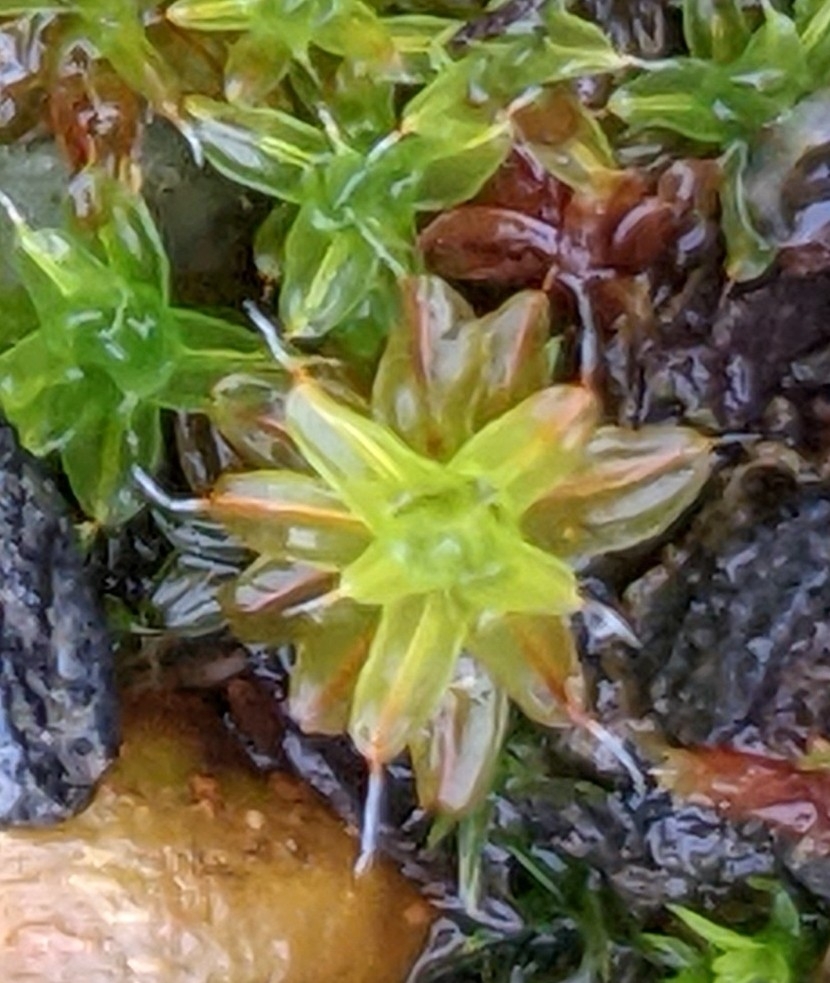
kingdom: Plantae
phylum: Bryophyta
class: Bryopsida
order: Pottiales
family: Pottiaceae
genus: Syntrichia
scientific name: Syntrichia ruralis
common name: Sidewalk screw moss
